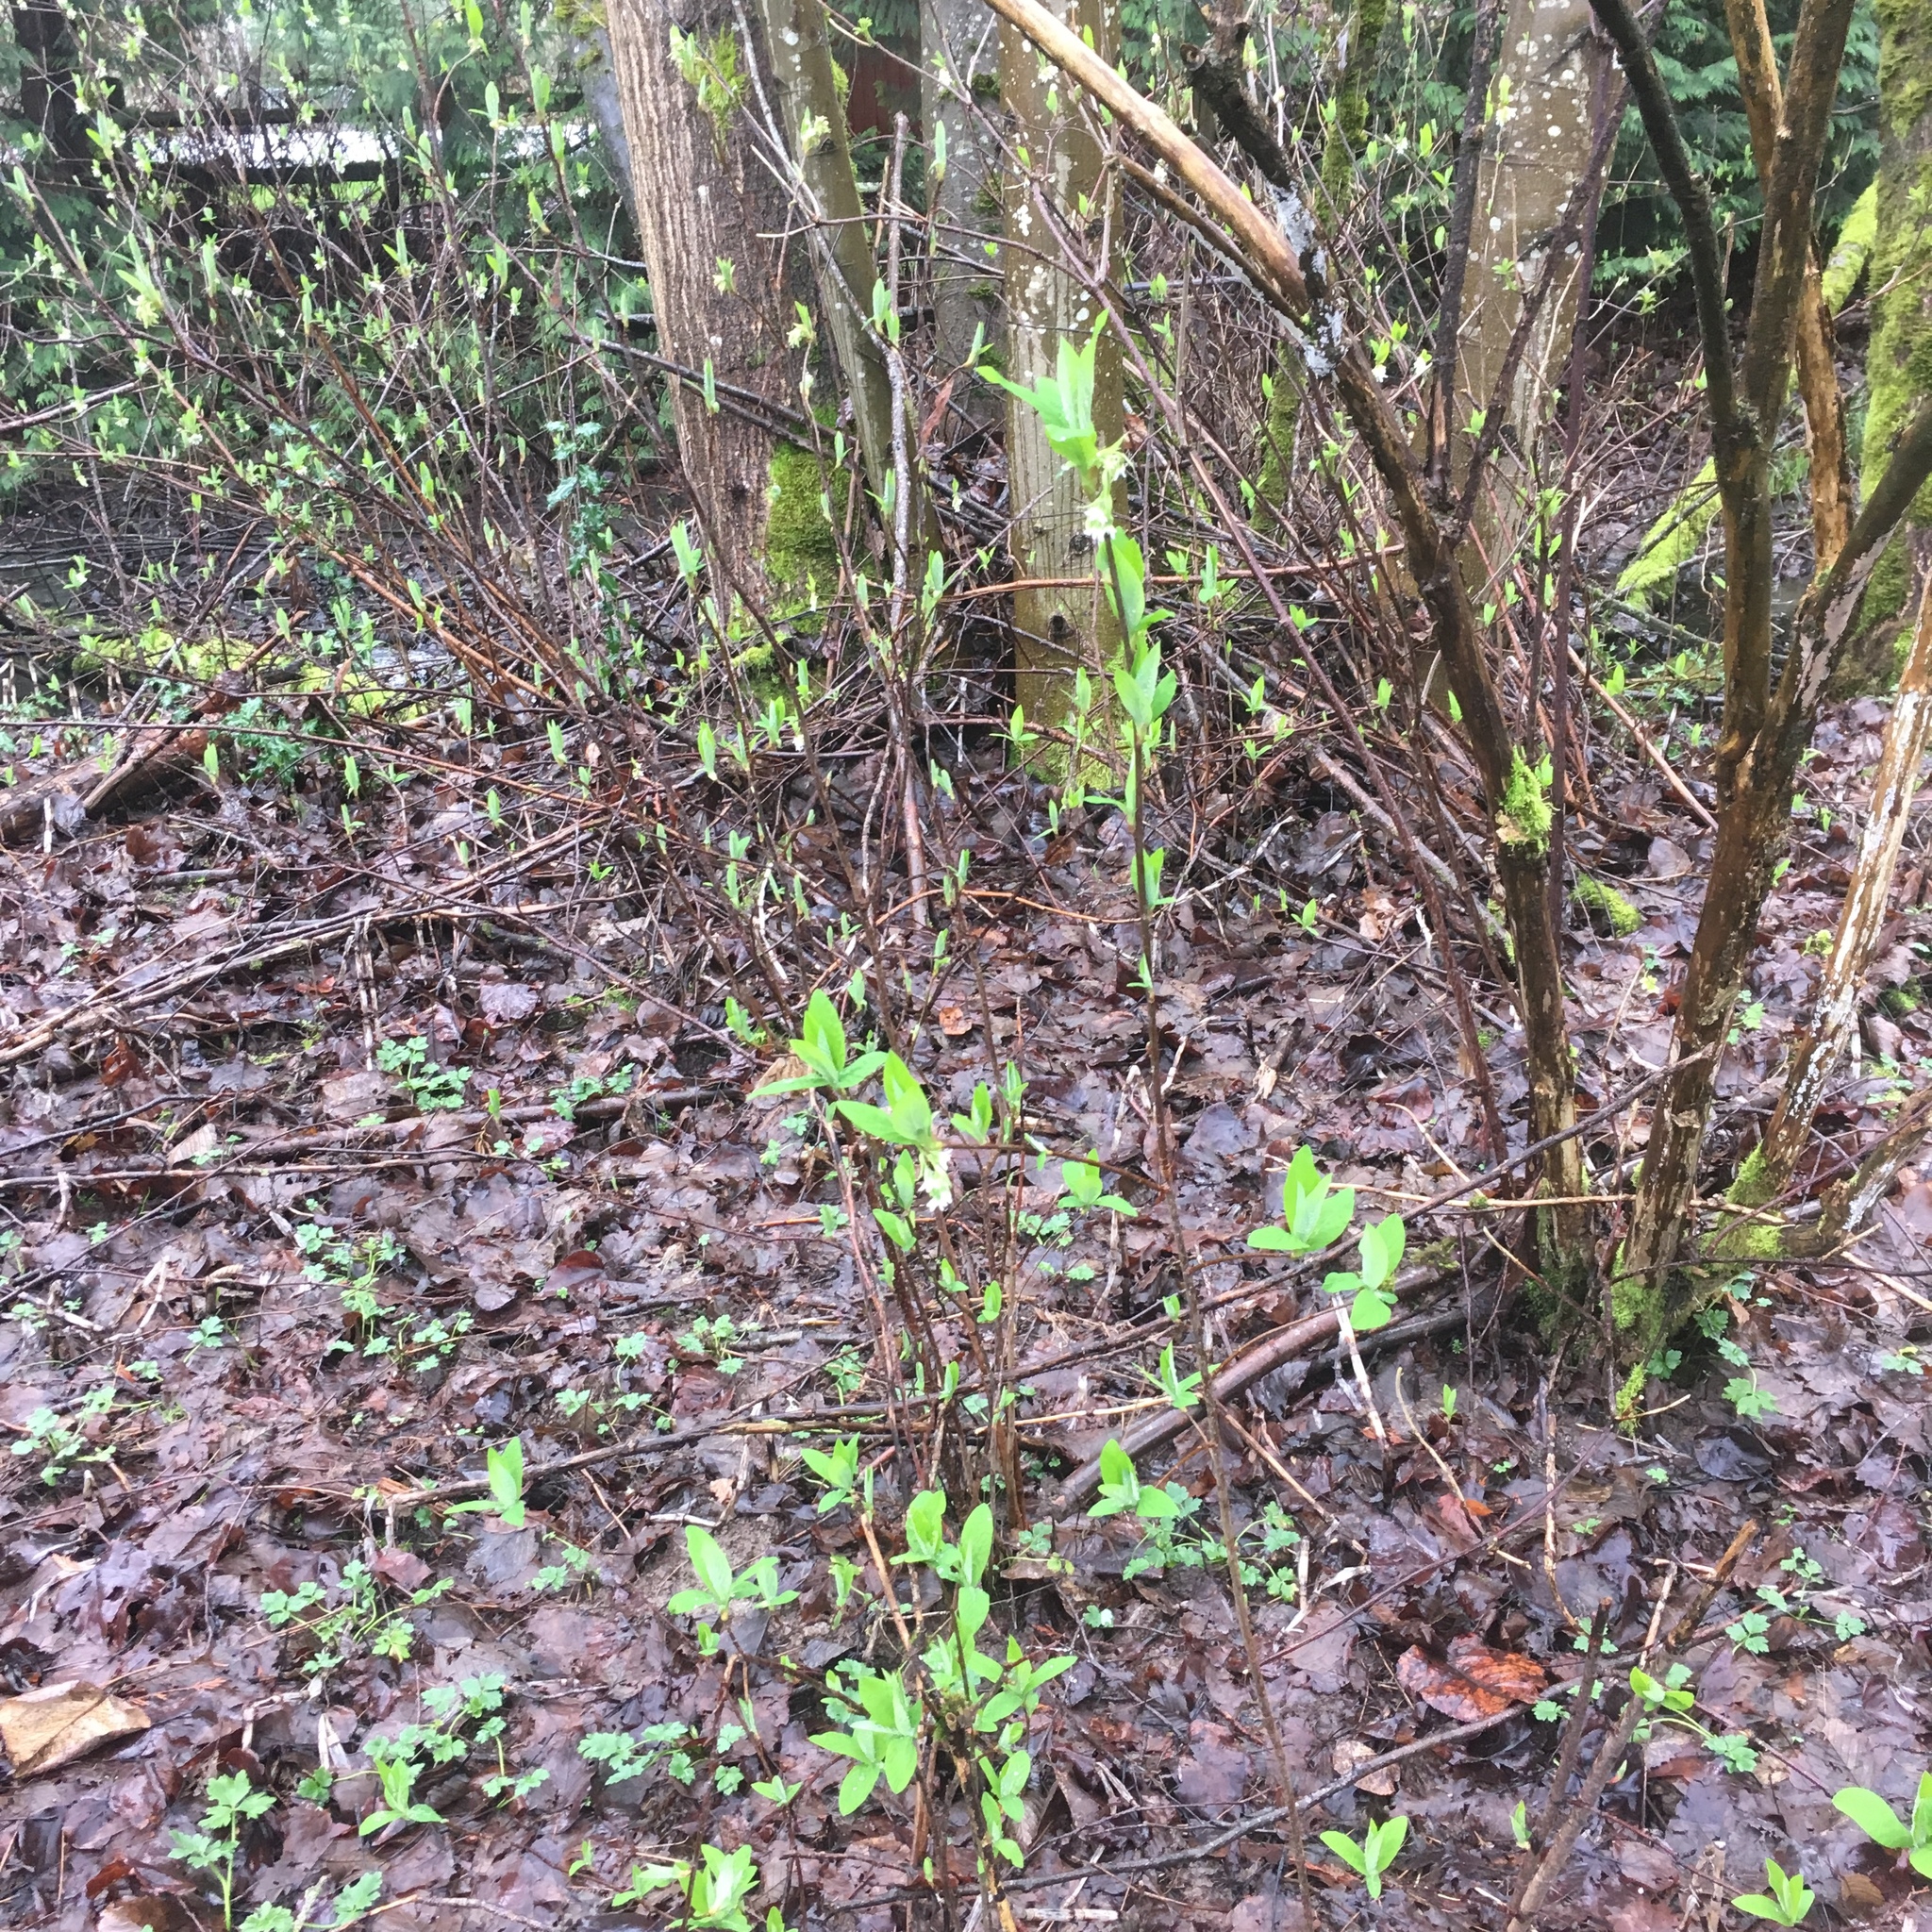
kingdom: Plantae
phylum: Tracheophyta
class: Magnoliopsida
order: Rosales
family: Rosaceae
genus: Oemleria
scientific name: Oemleria cerasiformis
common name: Osoberry
